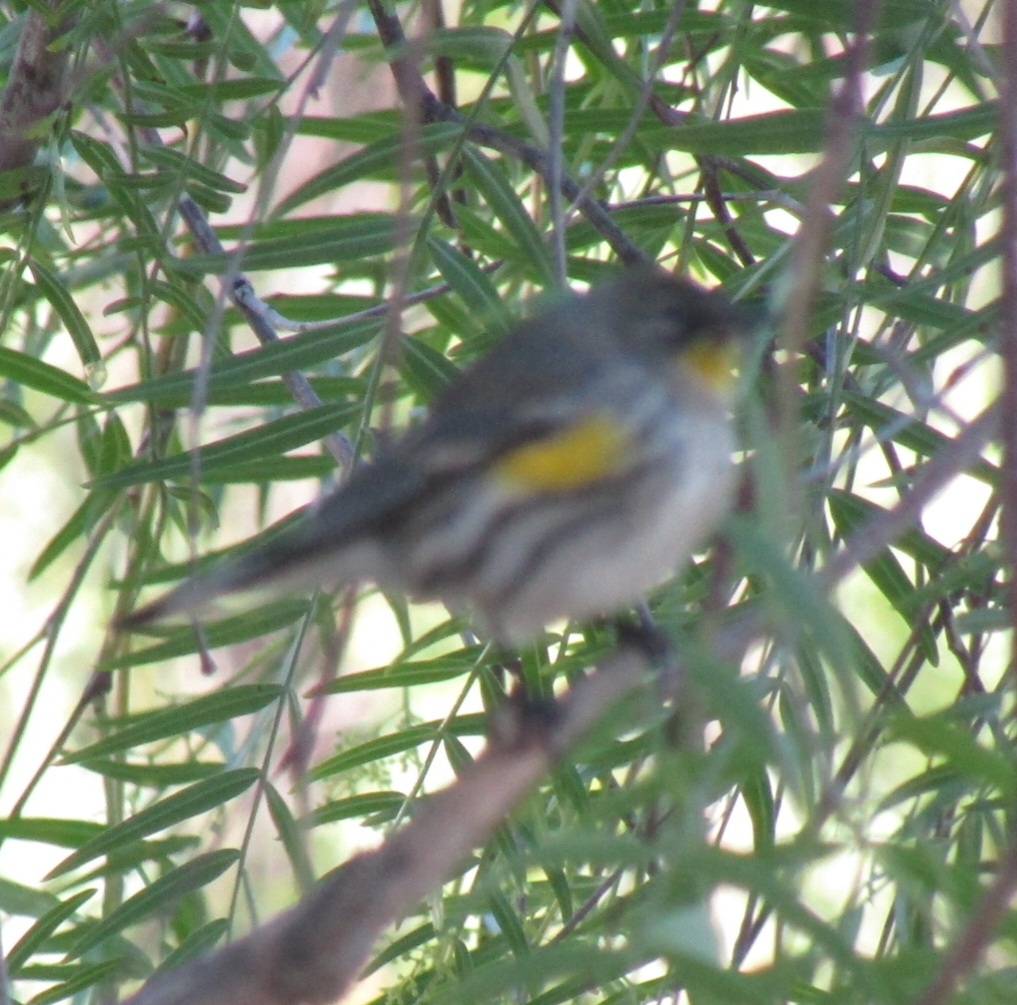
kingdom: Animalia
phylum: Chordata
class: Aves
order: Passeriformes
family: Parulidae
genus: Setophaga
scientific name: Setophaga coronata
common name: Myrtle warbler
